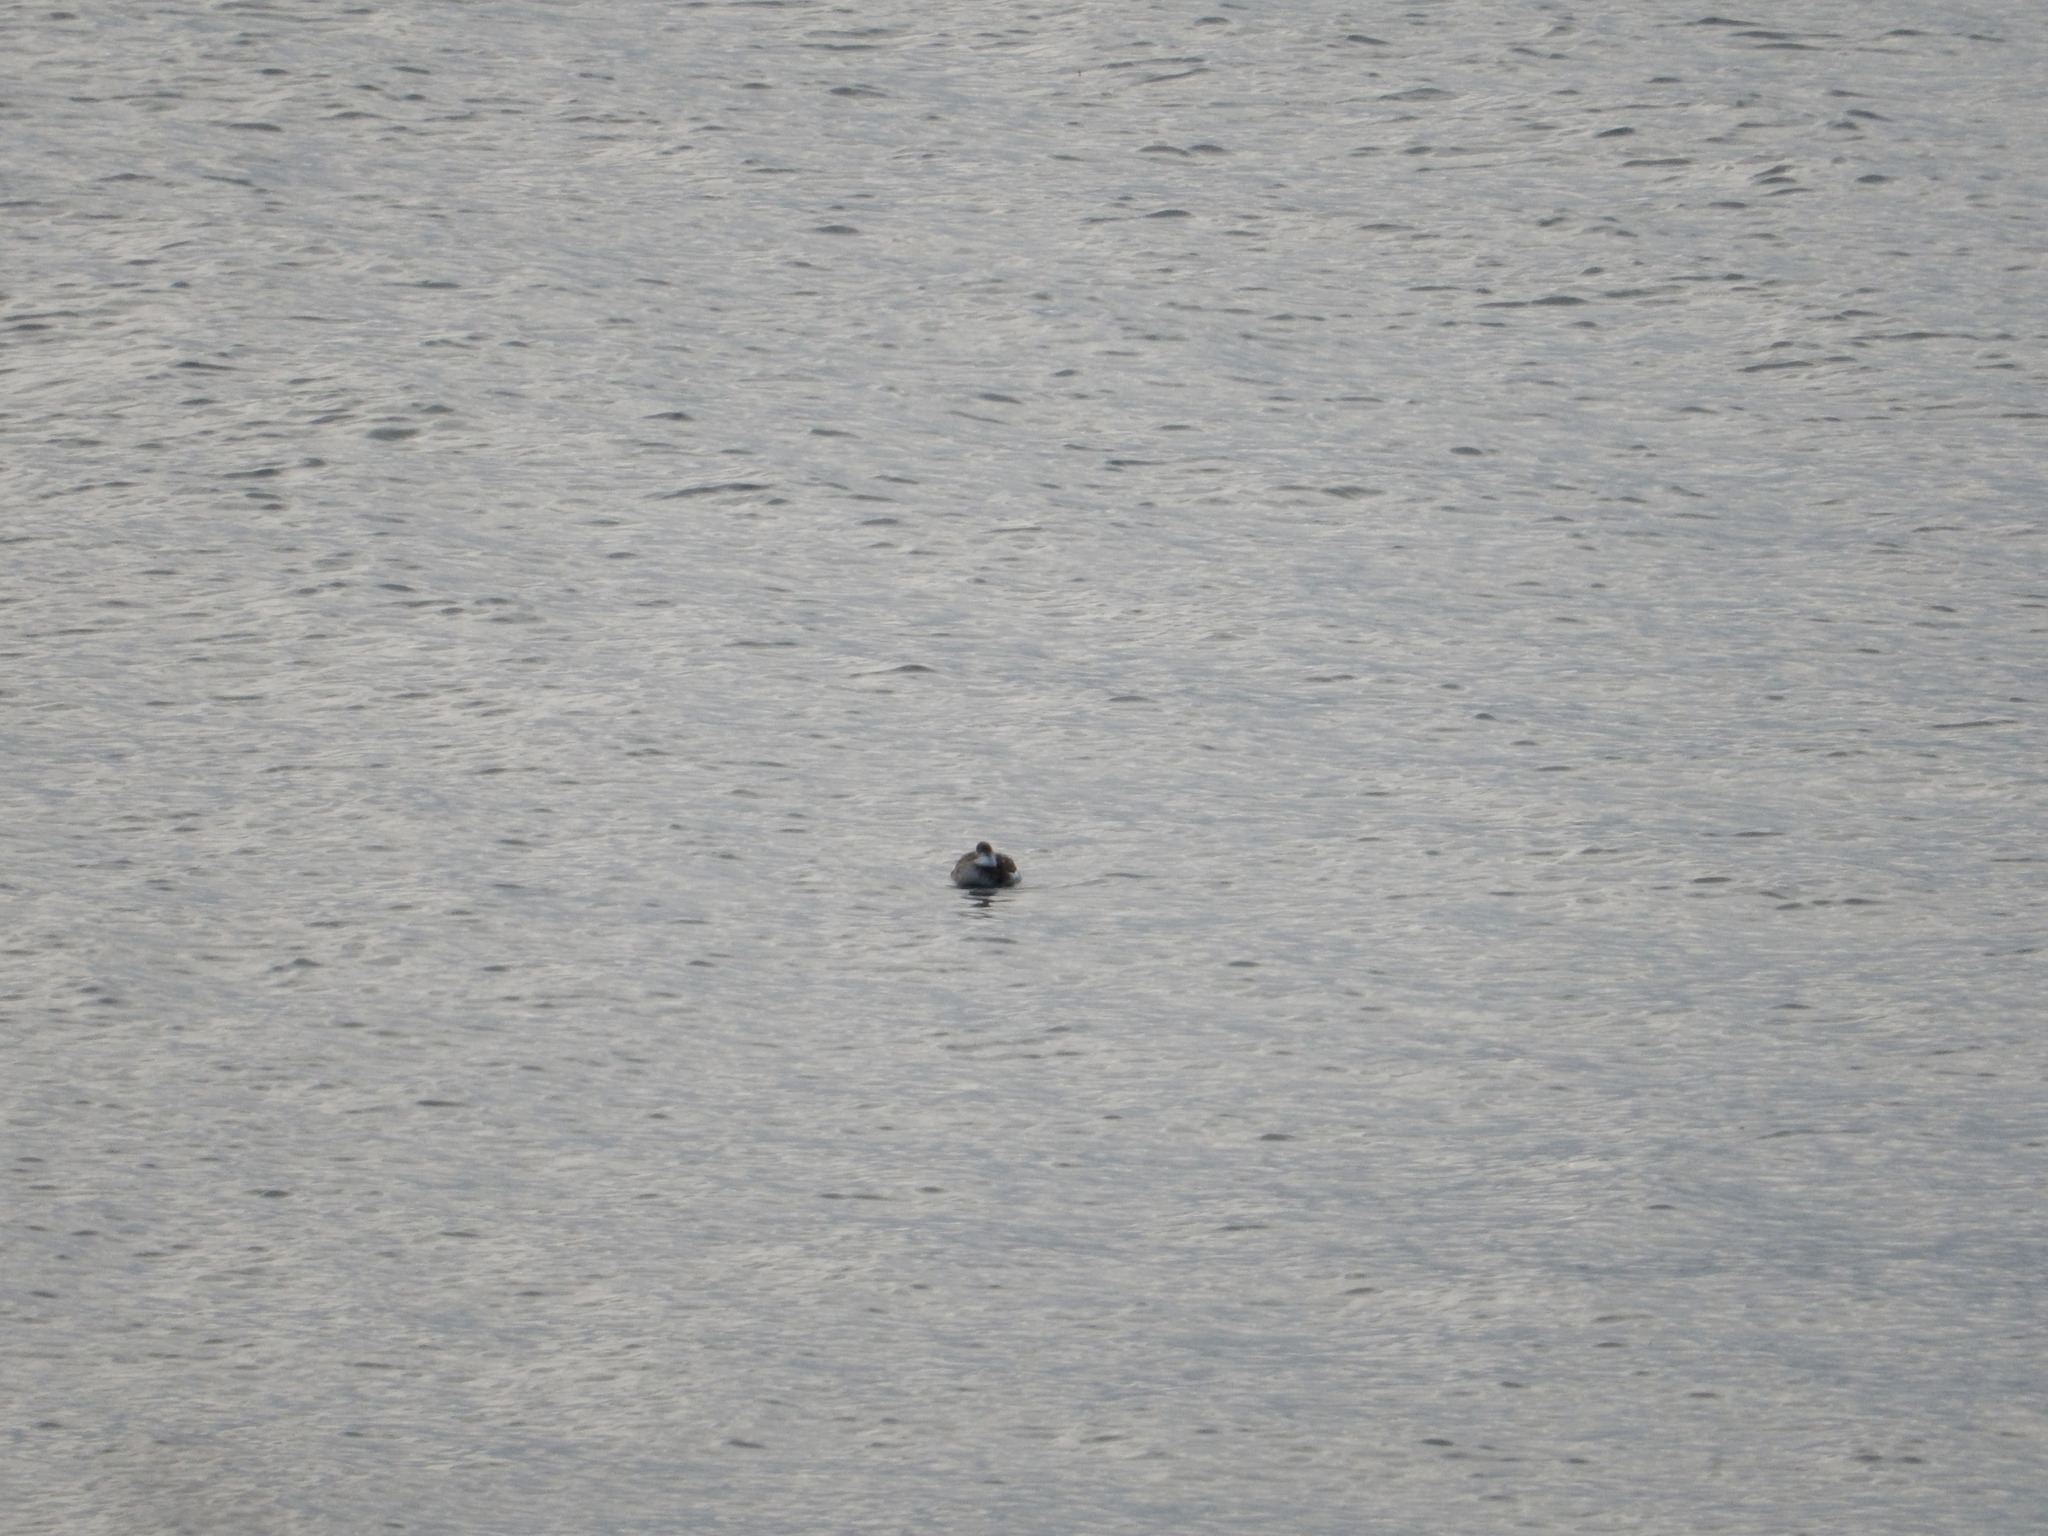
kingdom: Animalia
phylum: Chordata
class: Aves
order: Anseriformes
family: Anatidae
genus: Clangula
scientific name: Clangula hyemalis
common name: Long-tailed duck
